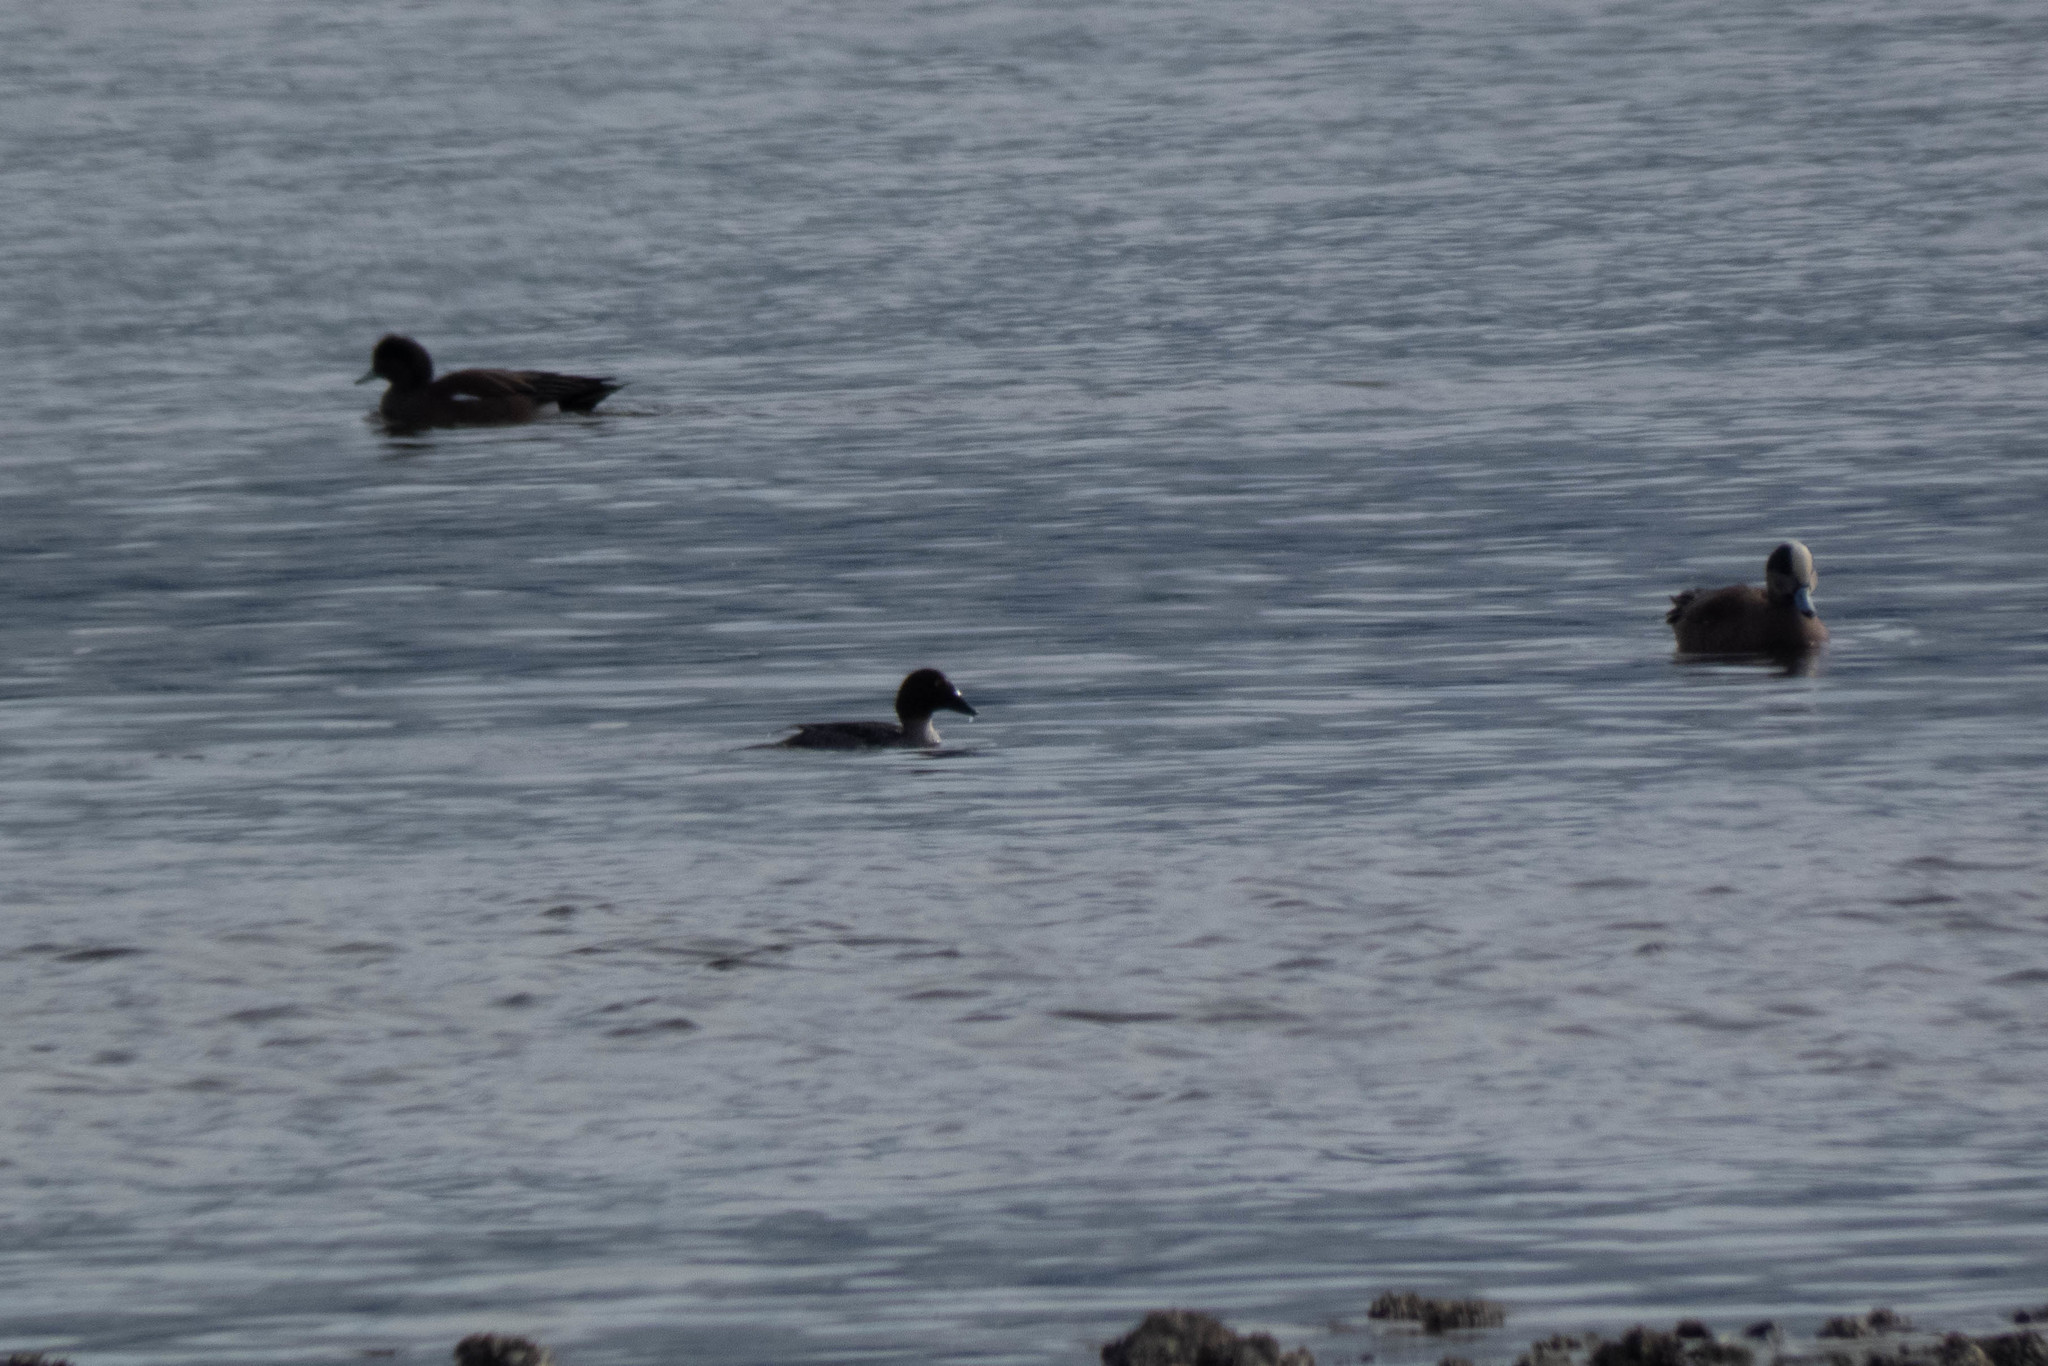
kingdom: Animalia
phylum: Chordata
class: Aves
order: Anseriformes
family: Anatidae
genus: Bucephala
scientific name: Bucephala clangula
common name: Common goldeneye
